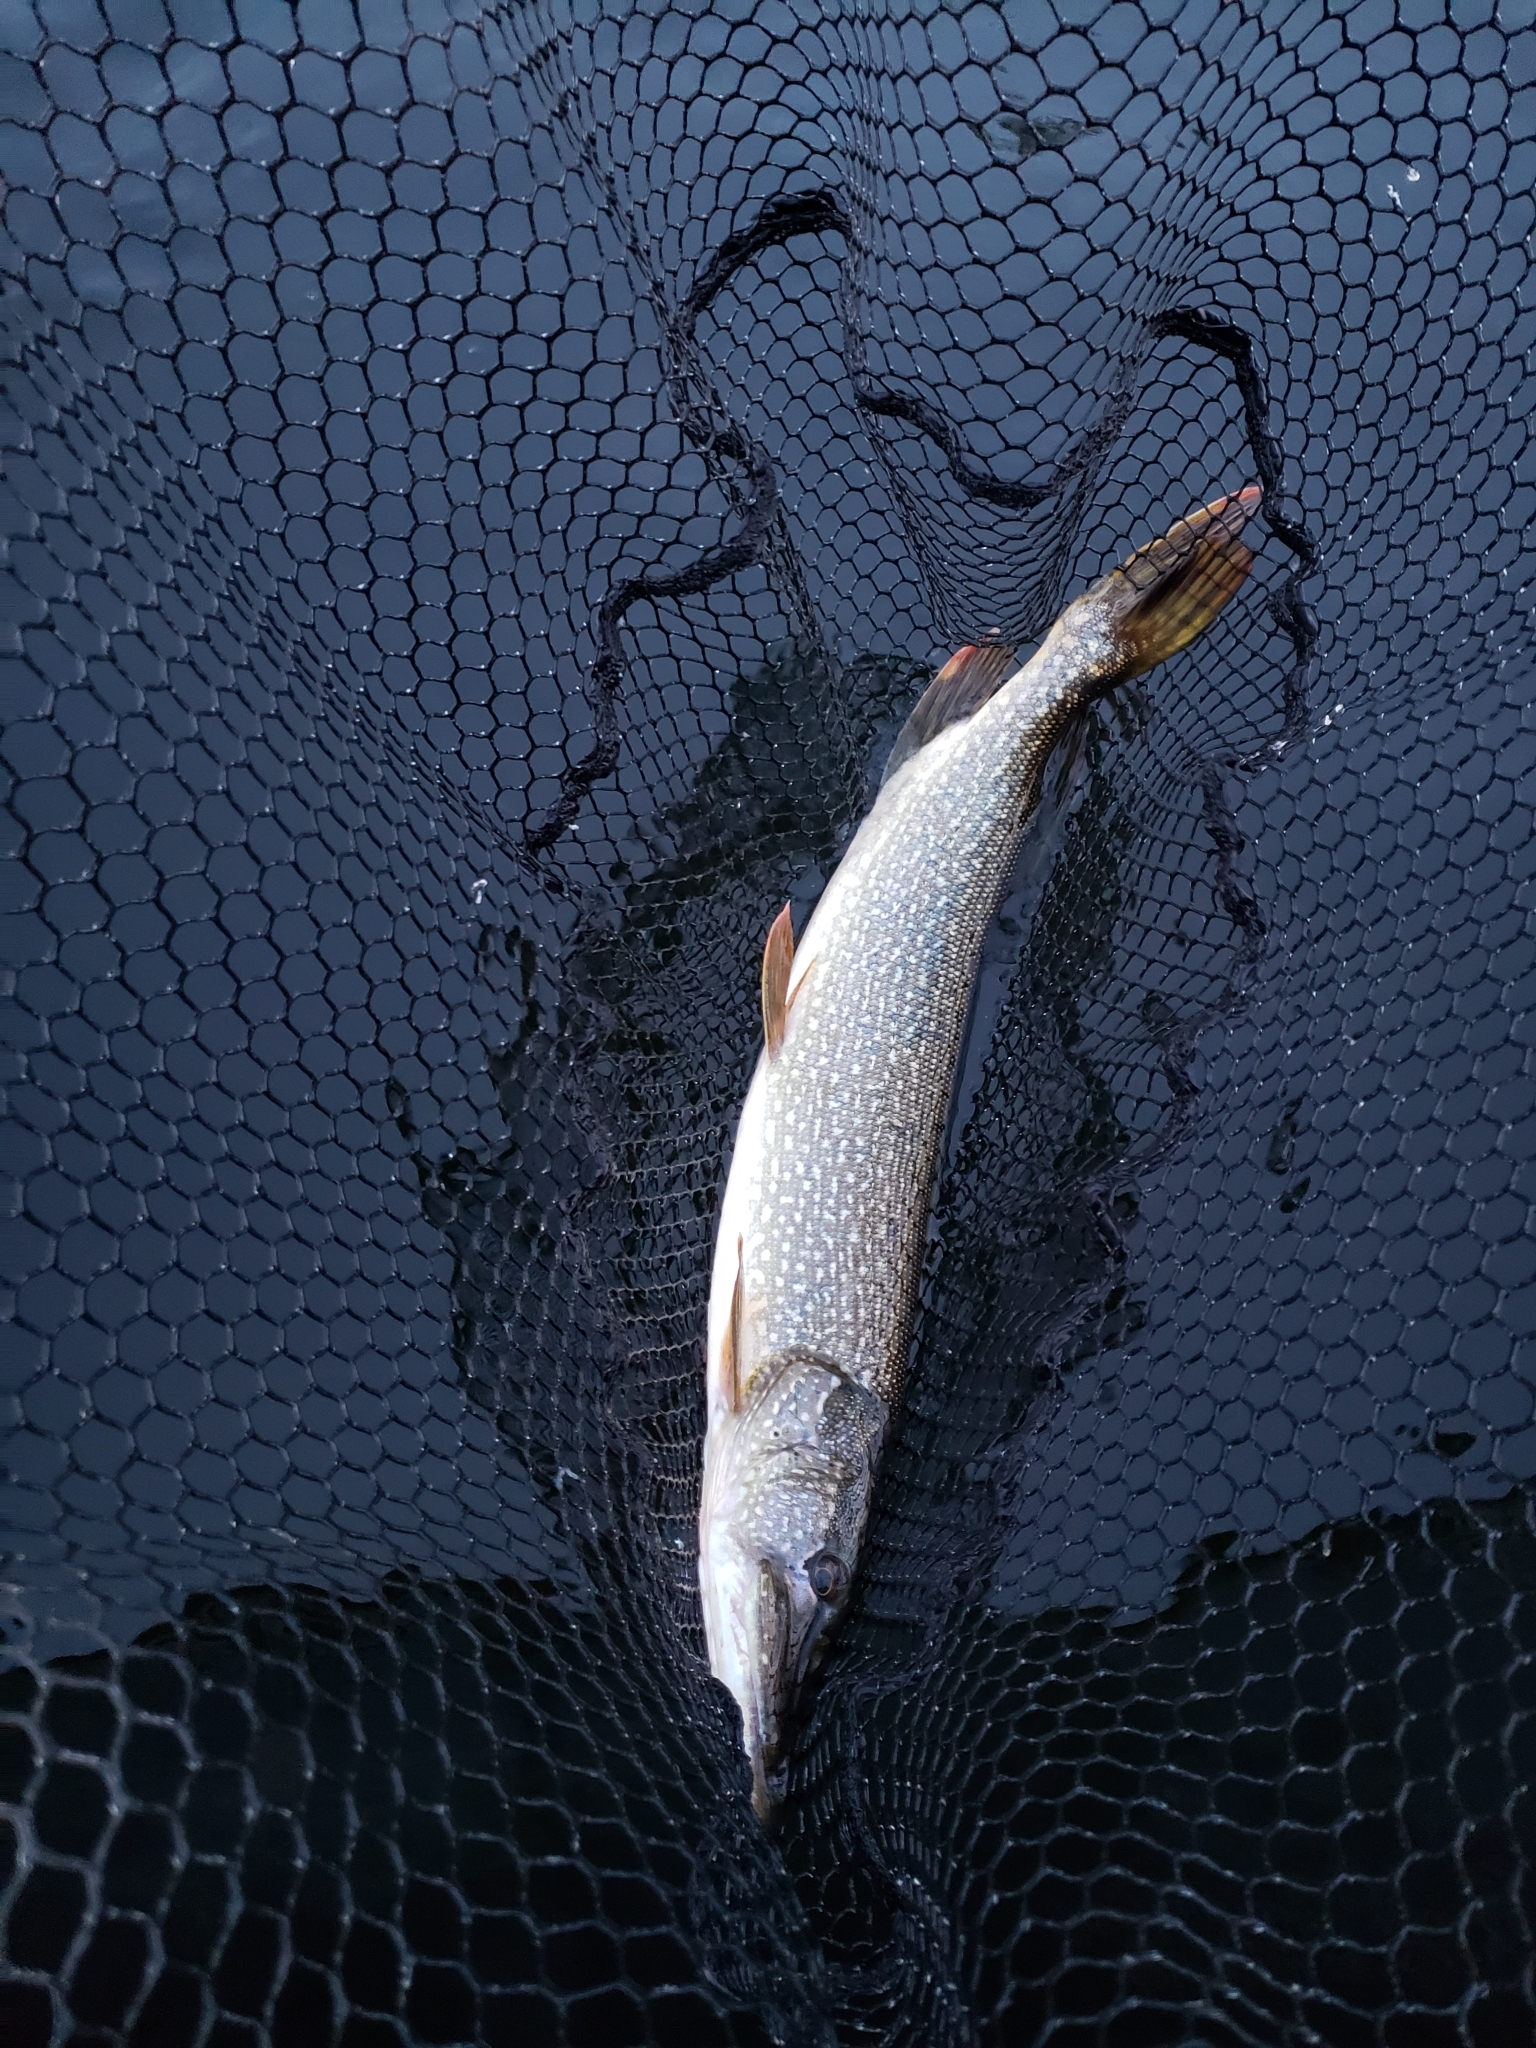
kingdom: Animalia
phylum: Chordata
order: Esociformes
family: Esocidae
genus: Esox
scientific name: Esox lucius
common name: Northern pike
